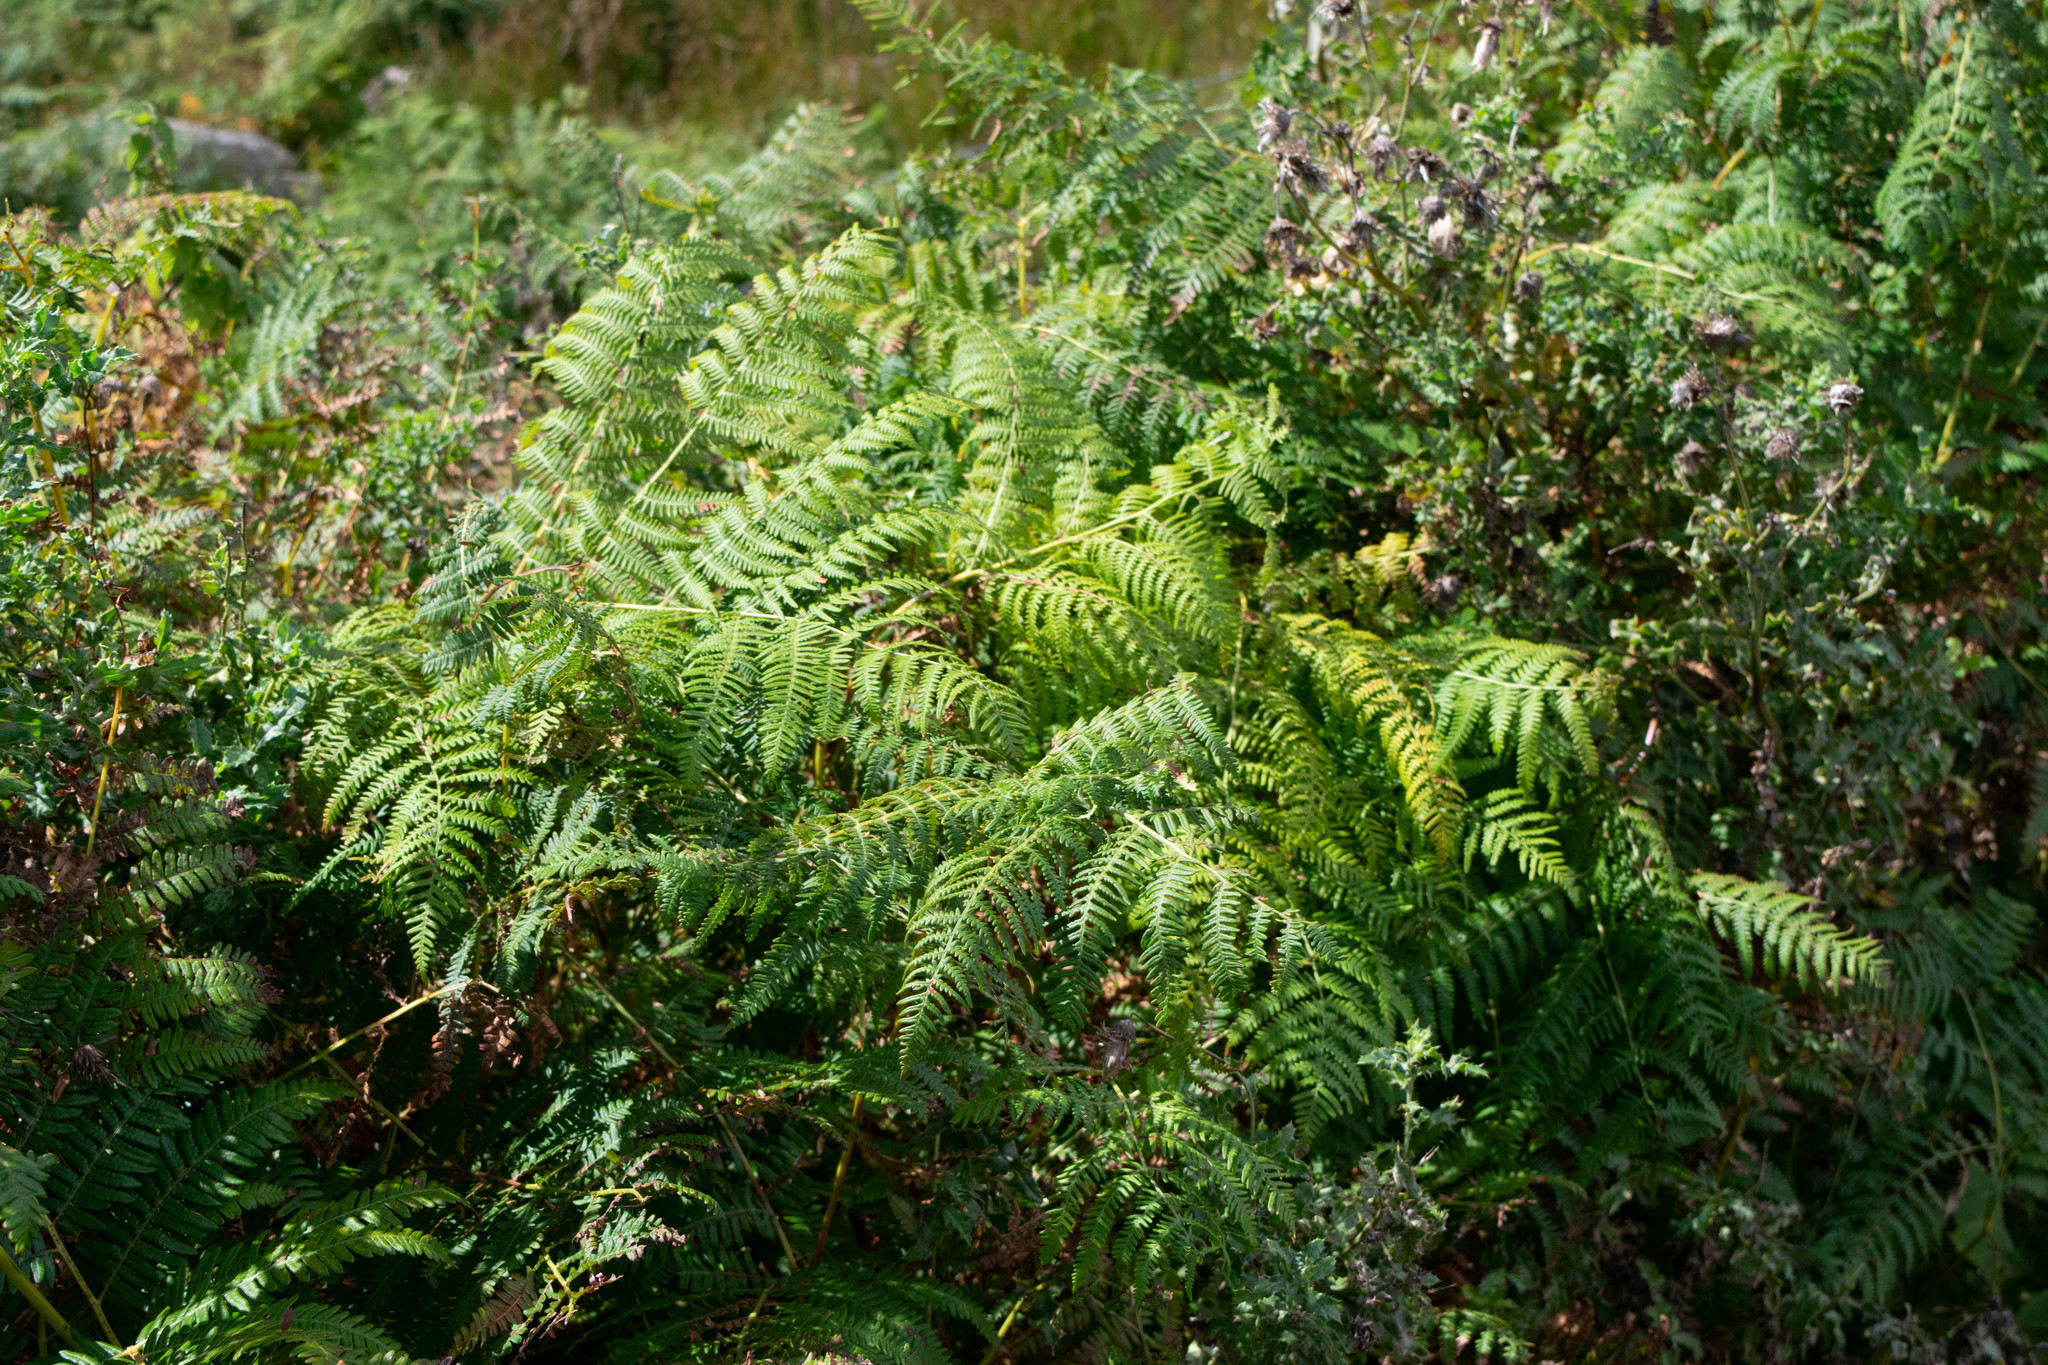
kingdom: Plantae
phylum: Tracheophyta
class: Polypodiopsida
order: Polypodiales
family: Dennstaedtiaceae
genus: Pteridium
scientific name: Pteridium aquilinum
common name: Bracken
